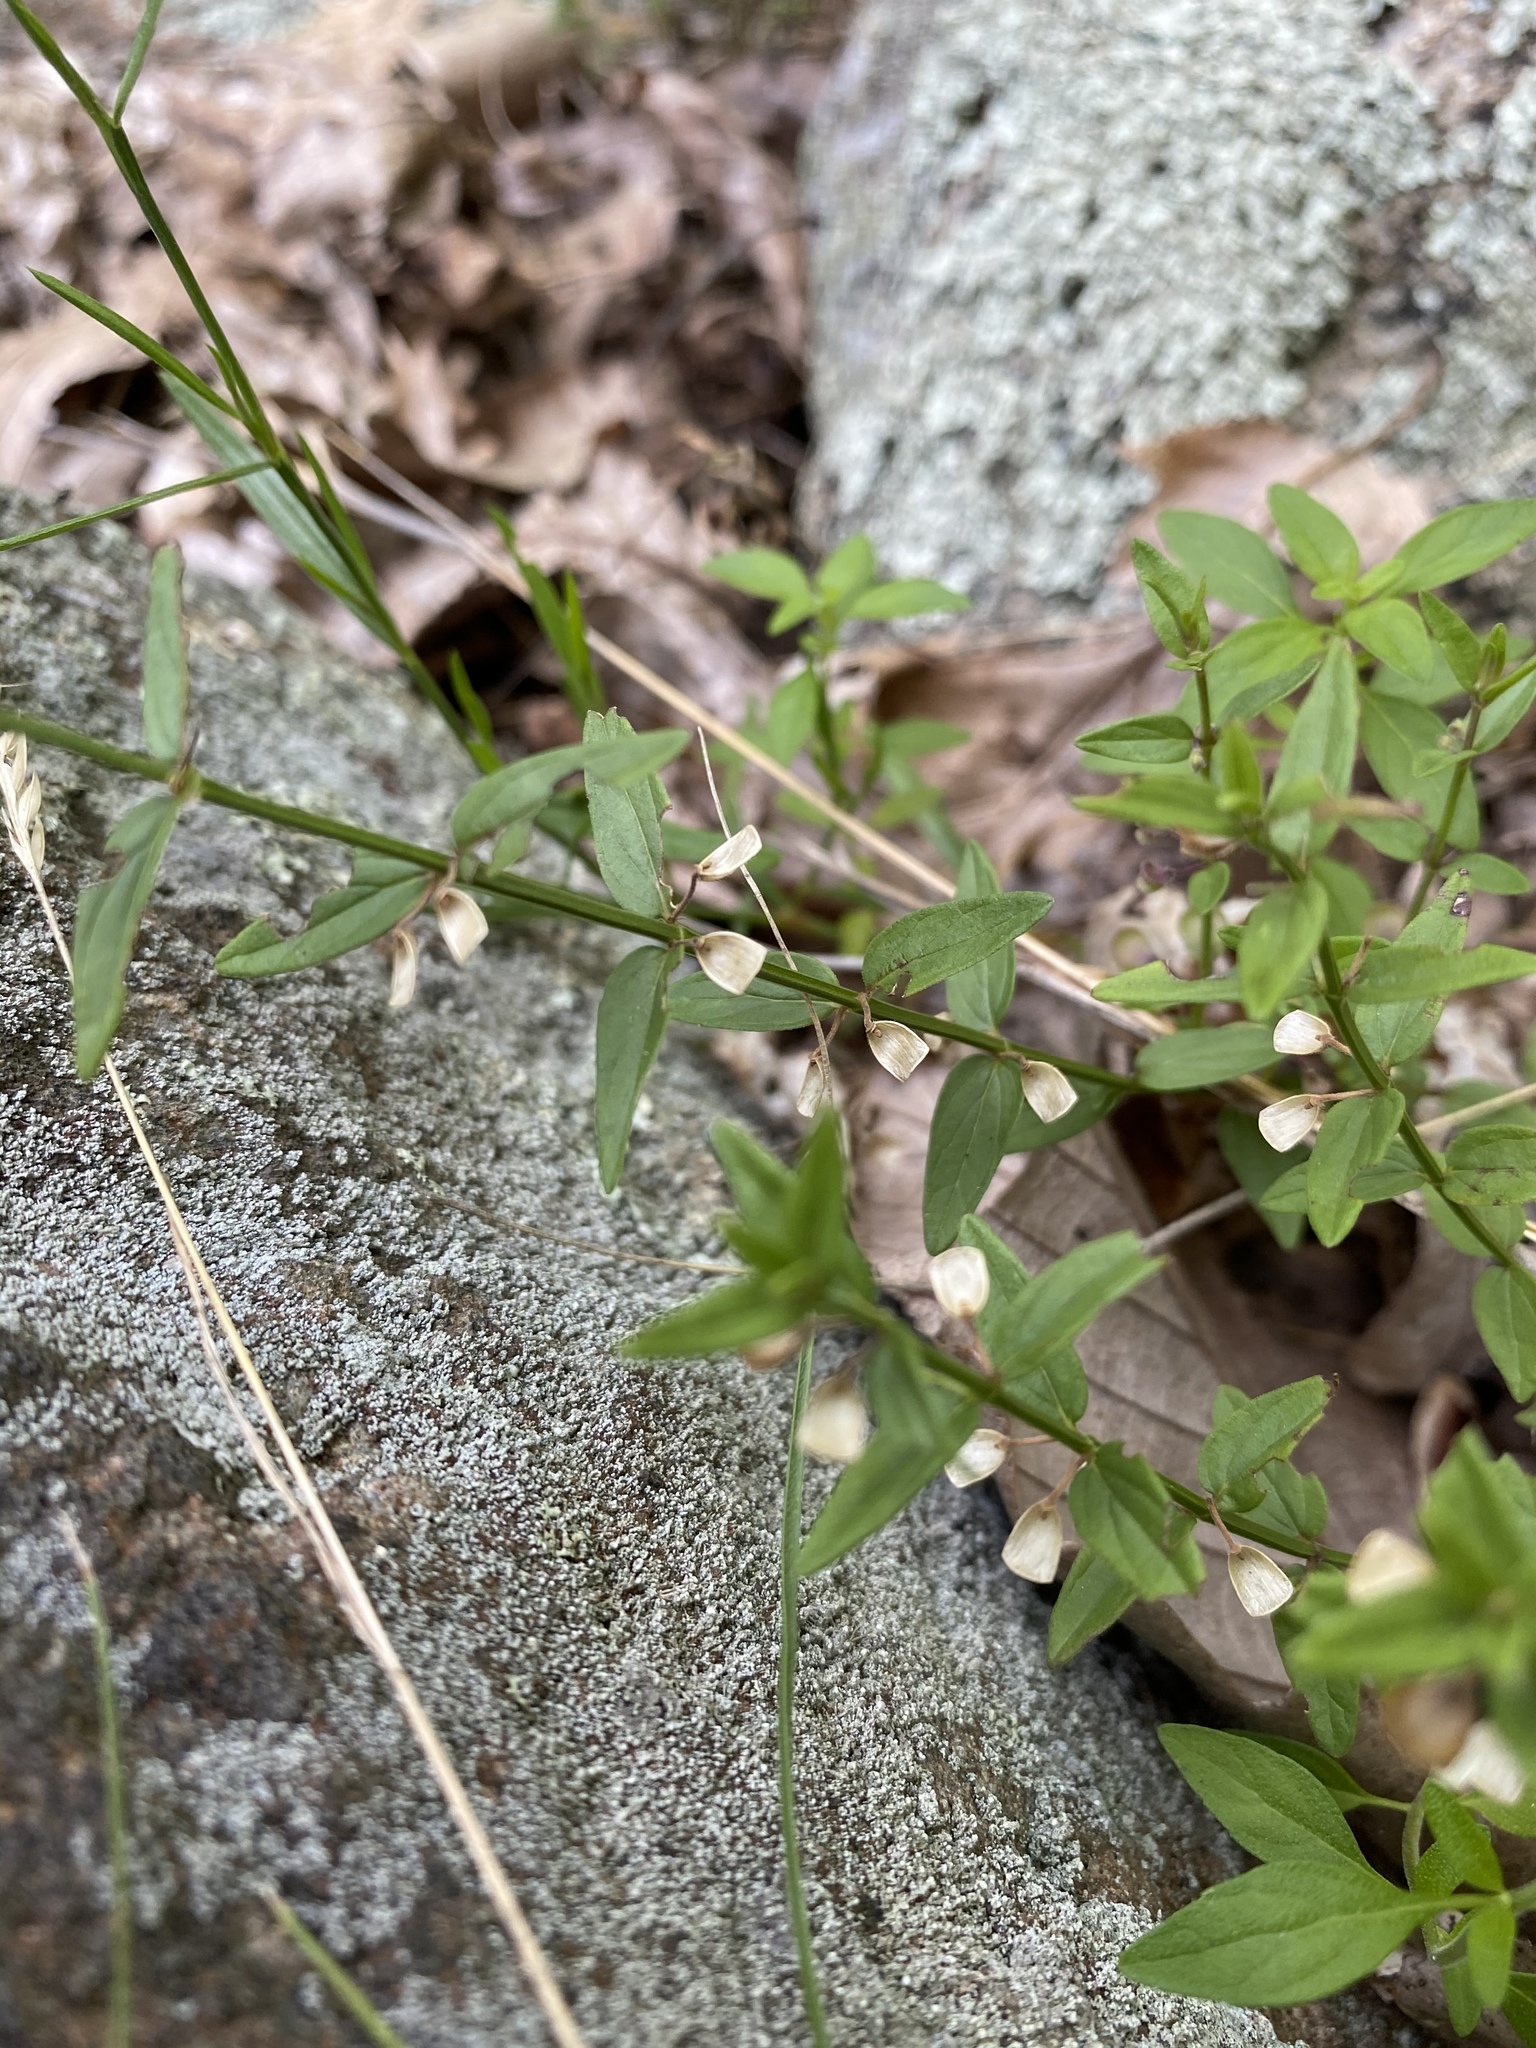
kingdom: Plantae
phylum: Tracheophyta
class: Magnoliopsida
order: Lamiales
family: Lamiaceae
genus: Scutellaria
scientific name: Scutellaria parvula
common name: Little scullcap
